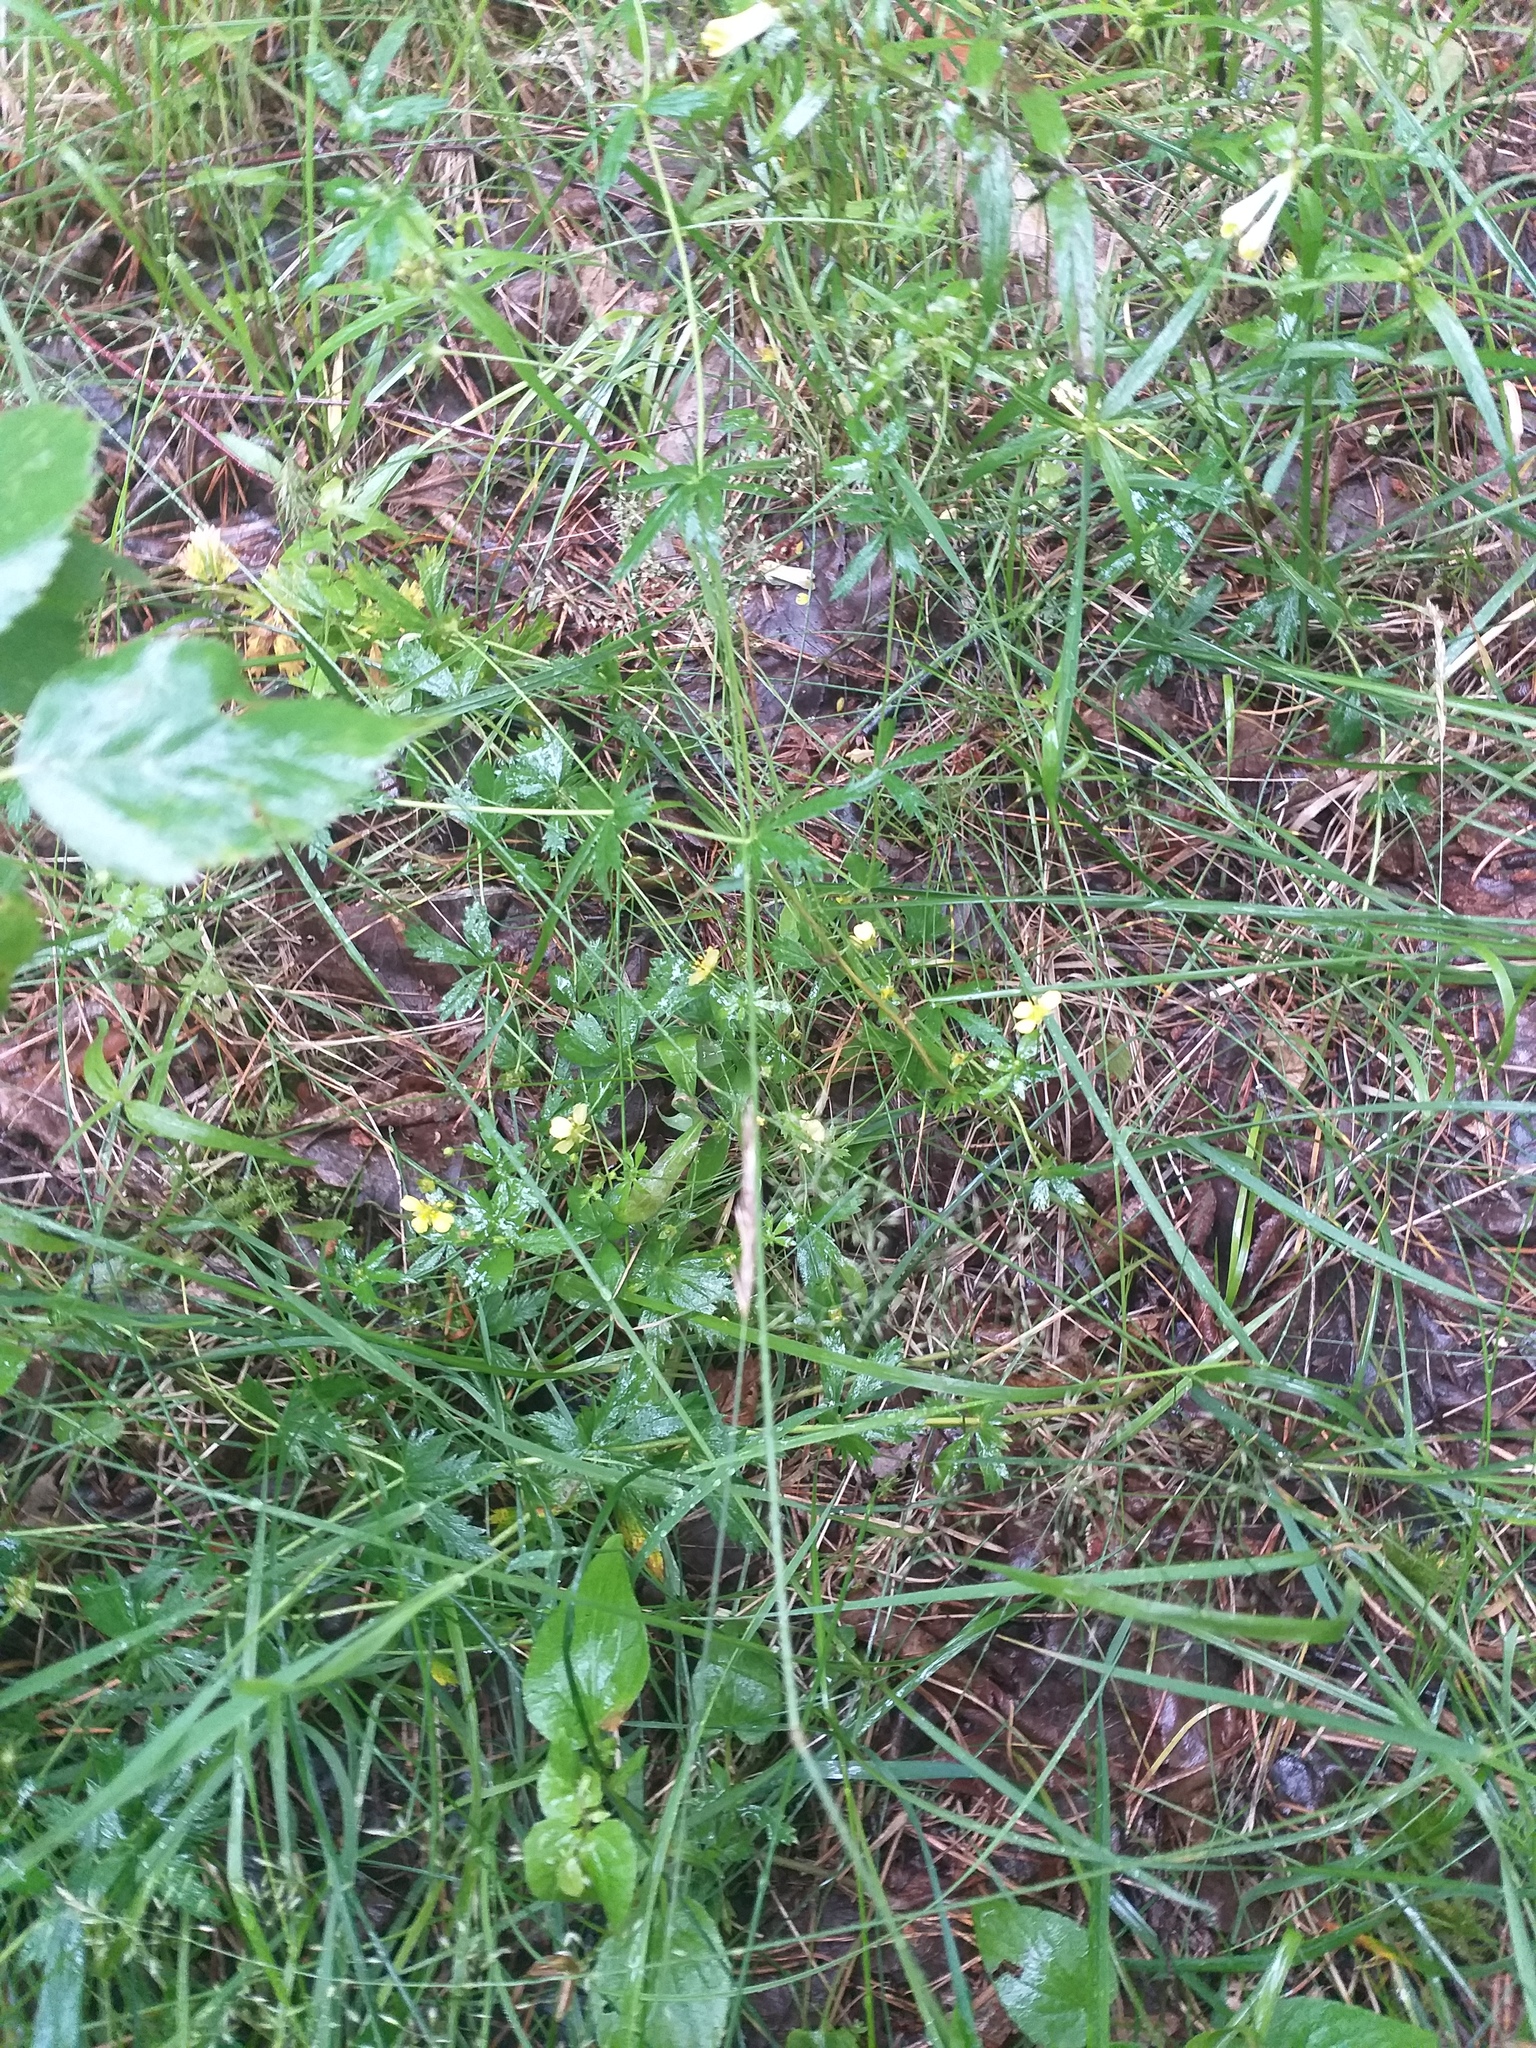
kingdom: Plantae
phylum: Tracheophyta
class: Magnoliopsida
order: Rosales
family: Rosaceae
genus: Potentilla
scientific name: Potentilla erecta
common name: Tormentil
